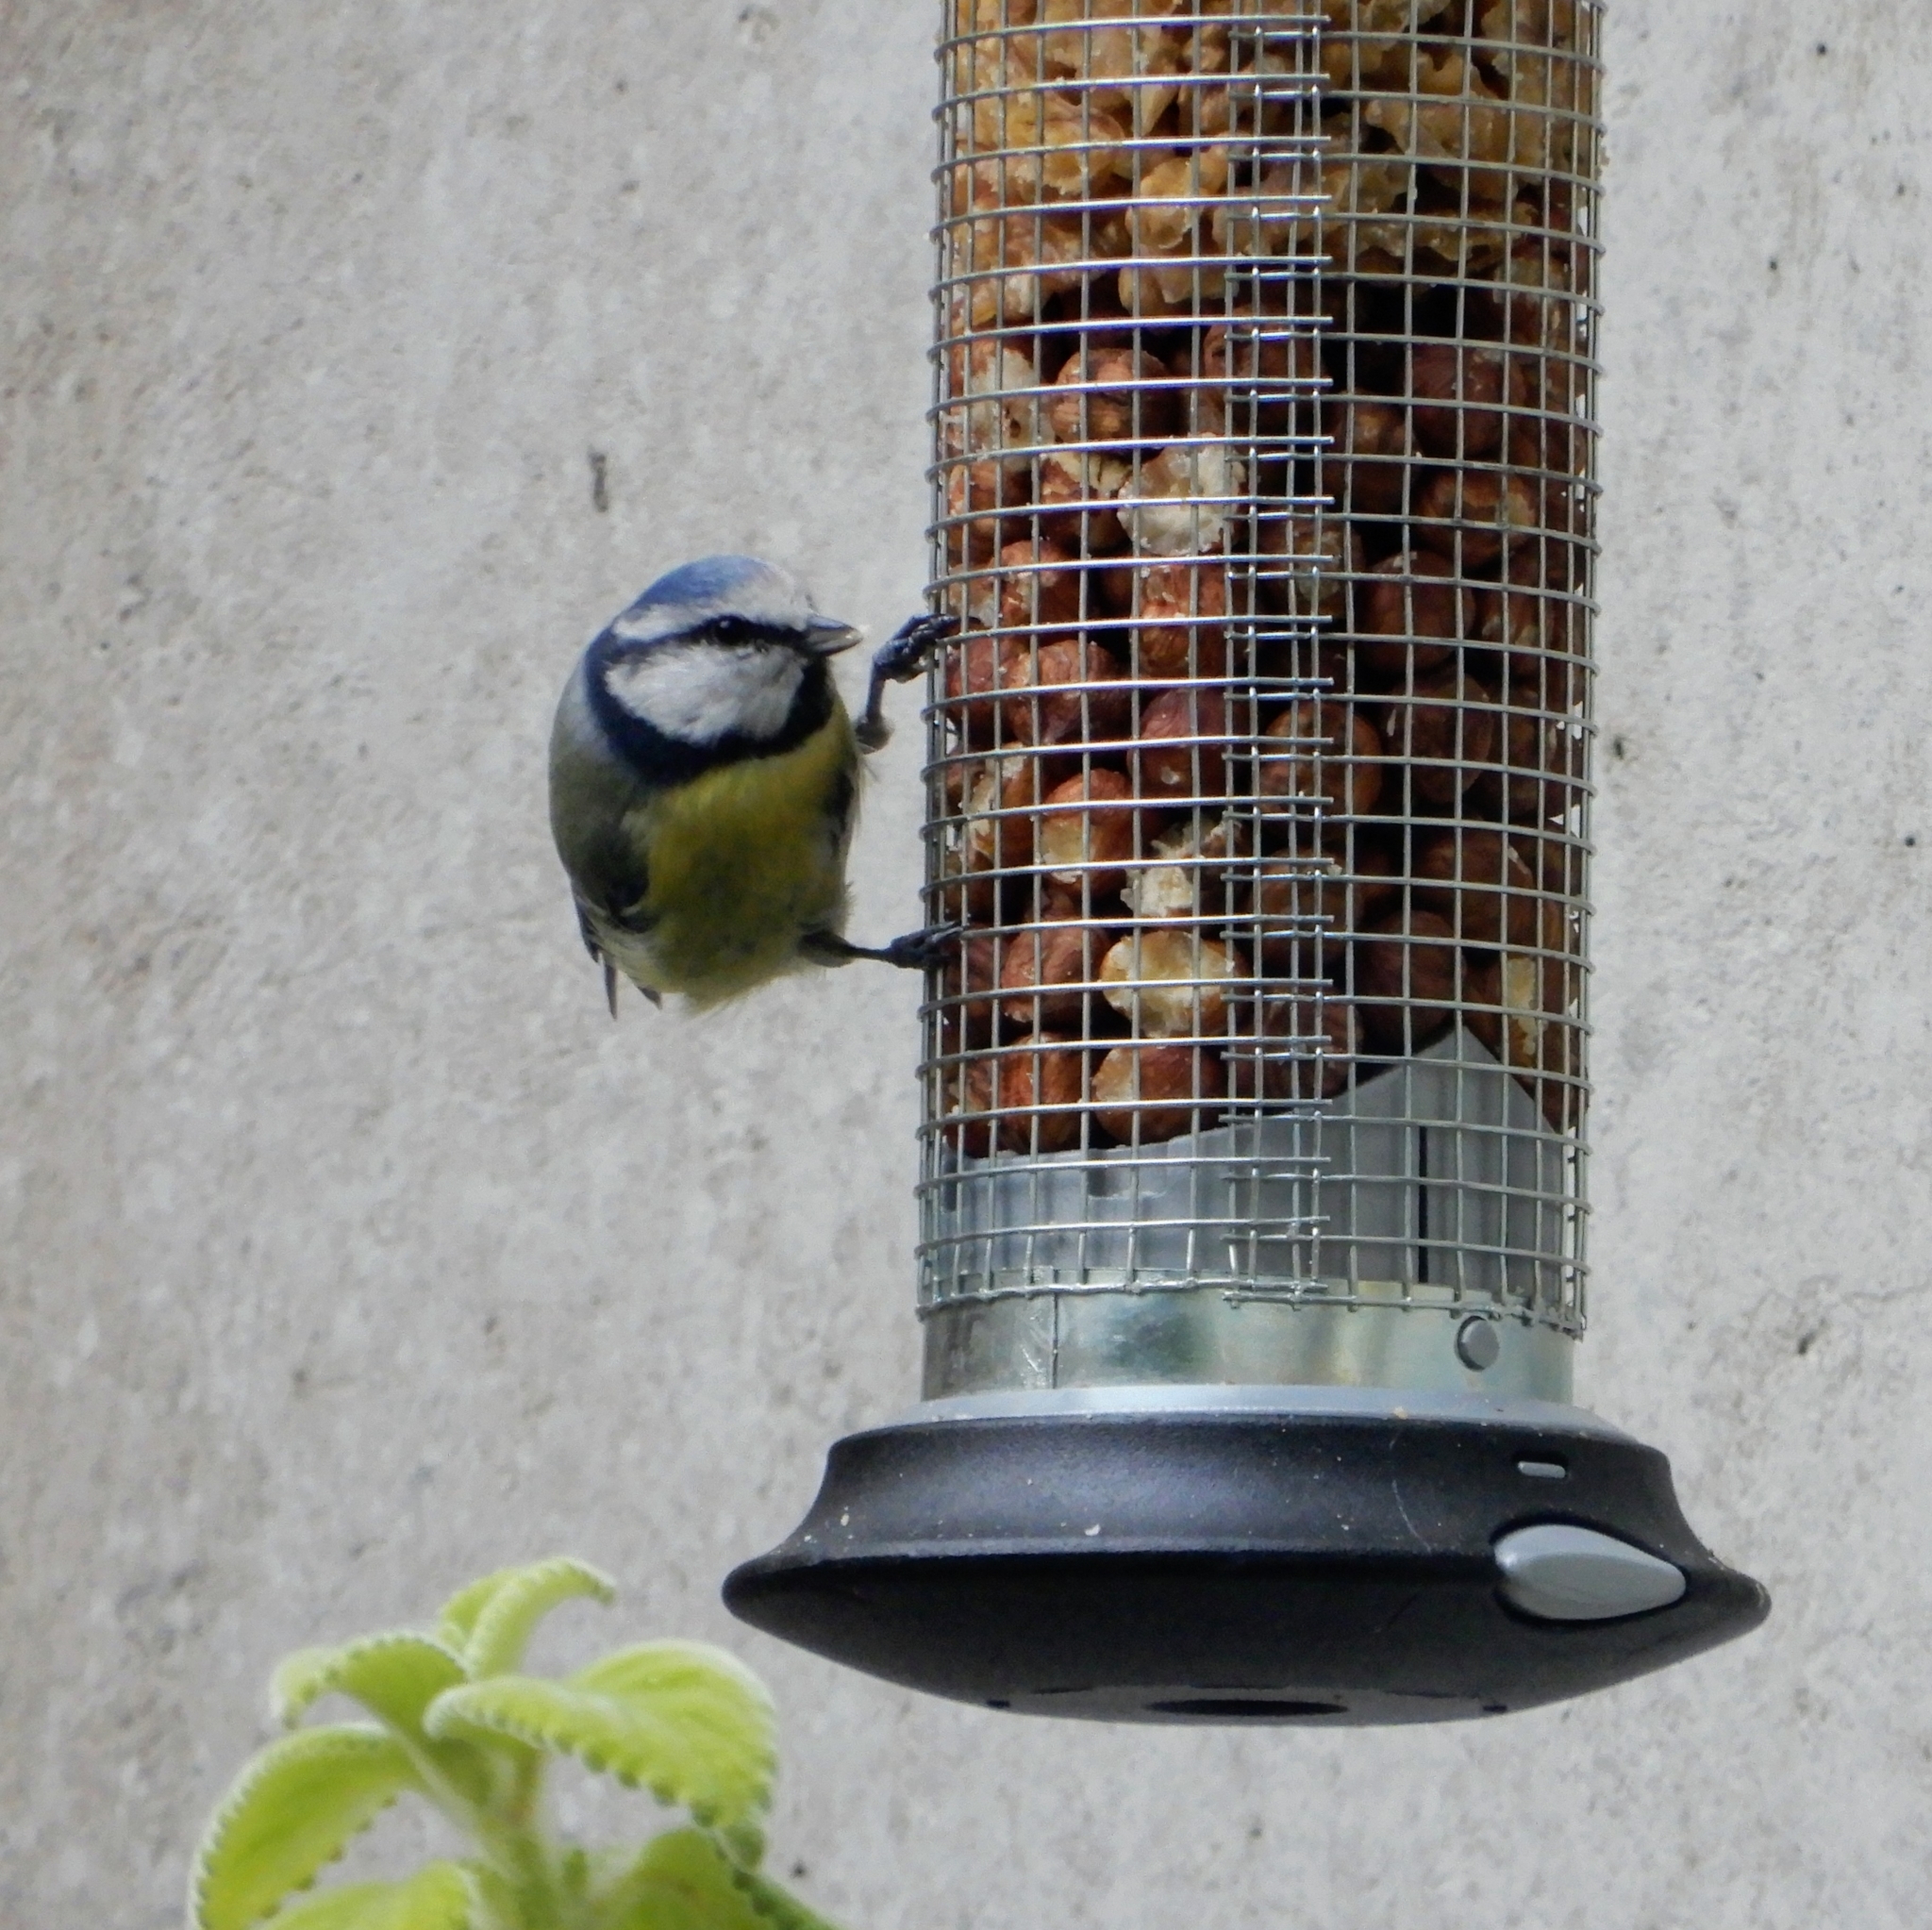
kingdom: Animalia
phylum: Chordata
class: Aves
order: Passeriformes
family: Paridae
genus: Cyanistes
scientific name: Cyanistes caeruleus
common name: Eurasian blue tit
